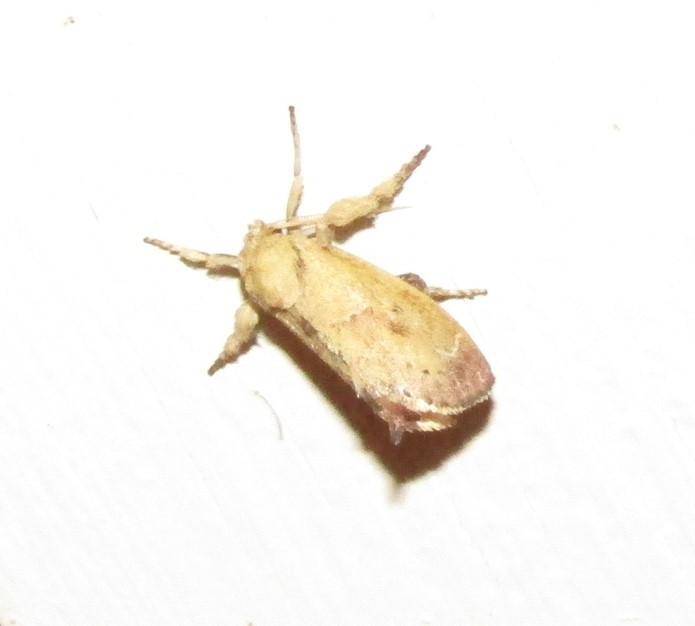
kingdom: Animalia
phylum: Arthropoda
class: Insecta
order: Lepidoptera
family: Limacodidae
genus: Adoneta
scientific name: Adoneta bicaudata
